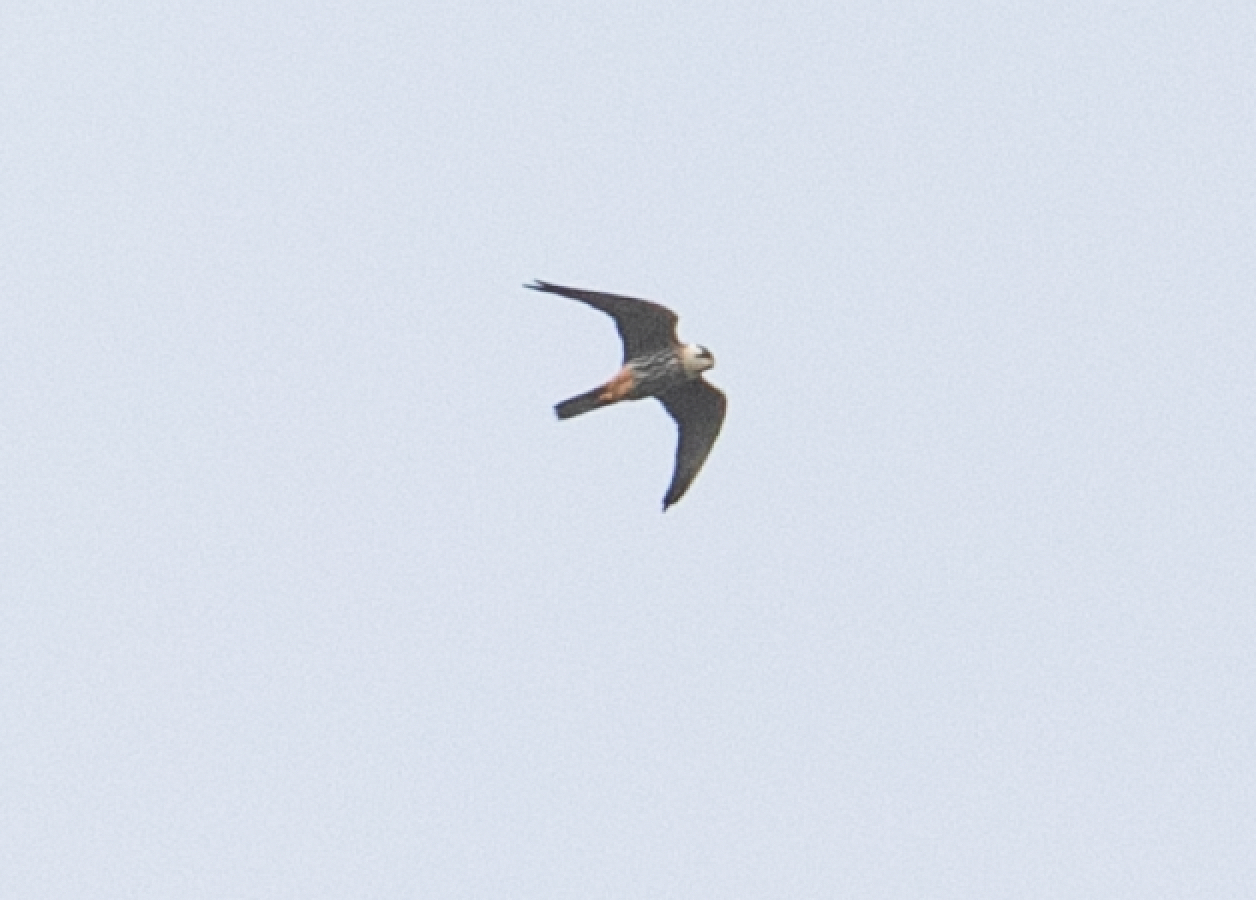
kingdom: Animalia
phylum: Chordata
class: Aves
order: Falconiformes
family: Falconidae
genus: Falco
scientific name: Falco subbuteo
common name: Eurasian hobby
